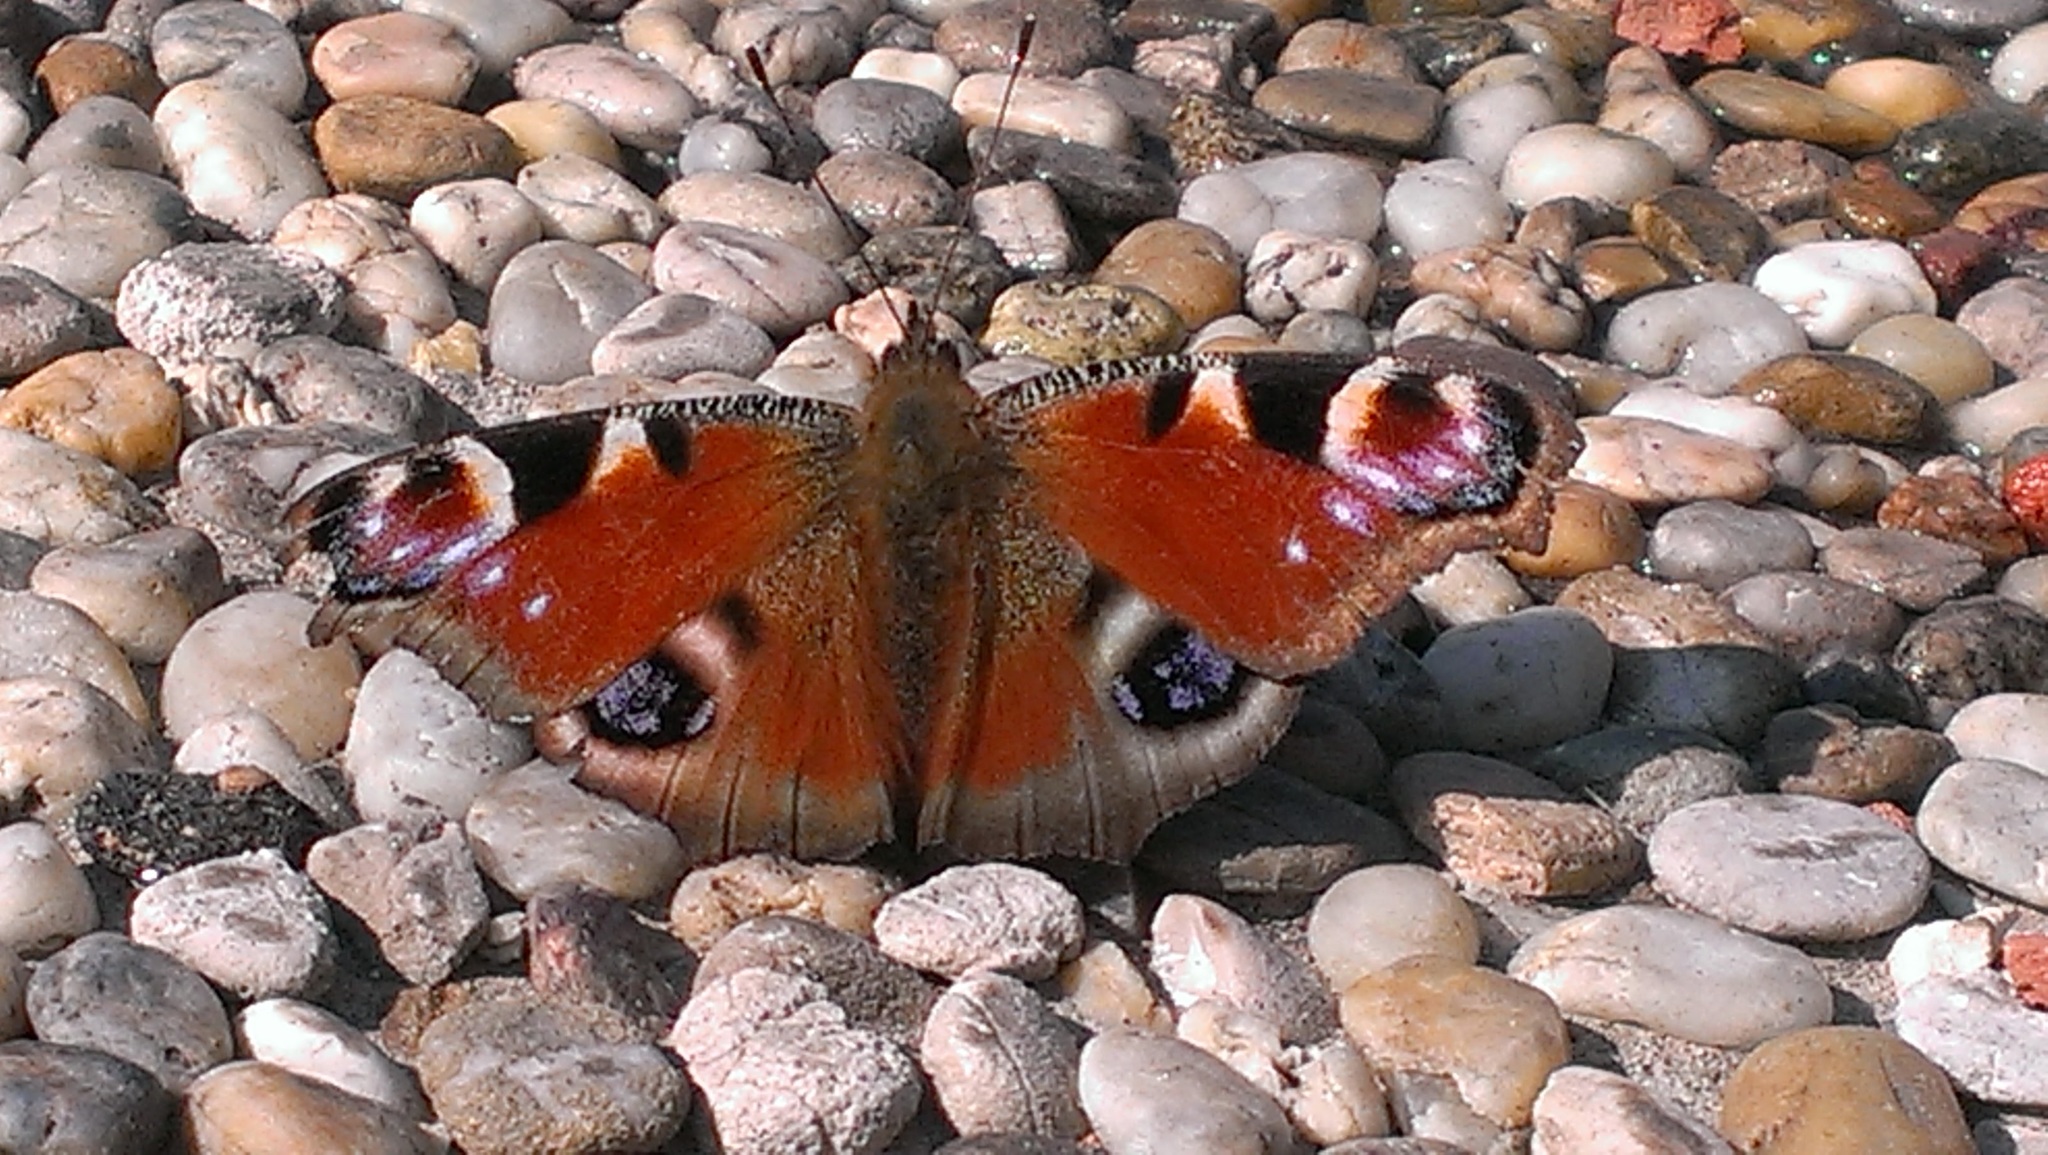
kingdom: Animalia
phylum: Arthropoda
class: Insecta
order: Lepidoptera
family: Nymphalidae
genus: Aglais
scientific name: Aglais io
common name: Peacock
